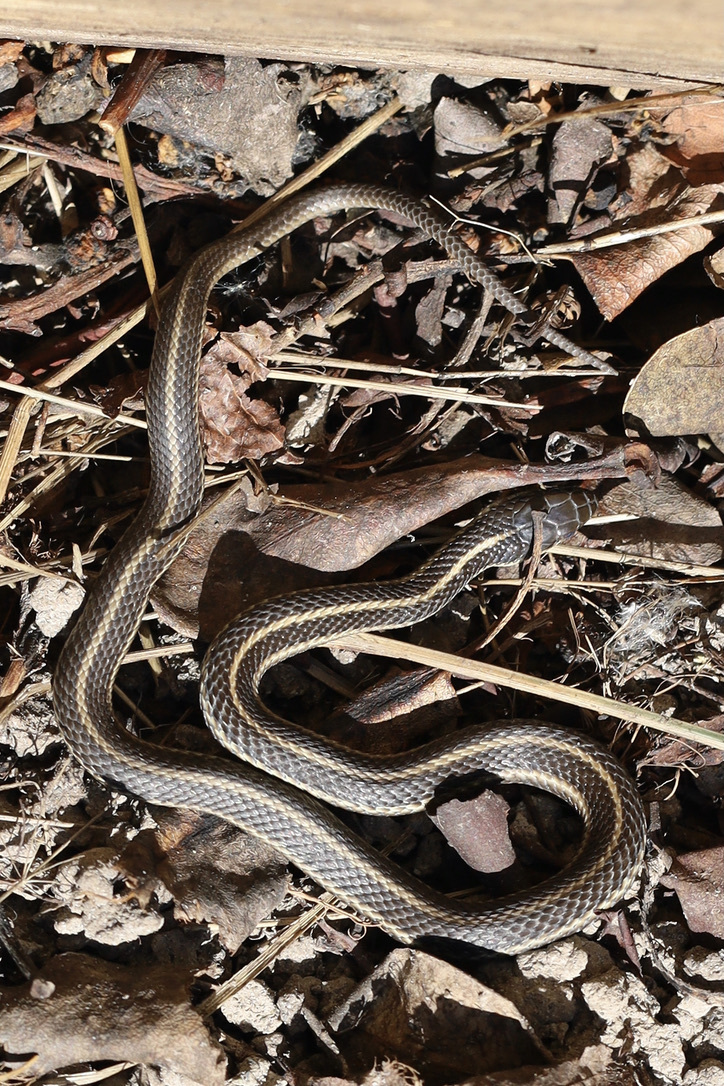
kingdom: Animalia
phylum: Chordata
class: Squamata
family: Colubridae
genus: Thamnophis
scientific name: Thamnophis ordinoides
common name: Northwestern garter snake
